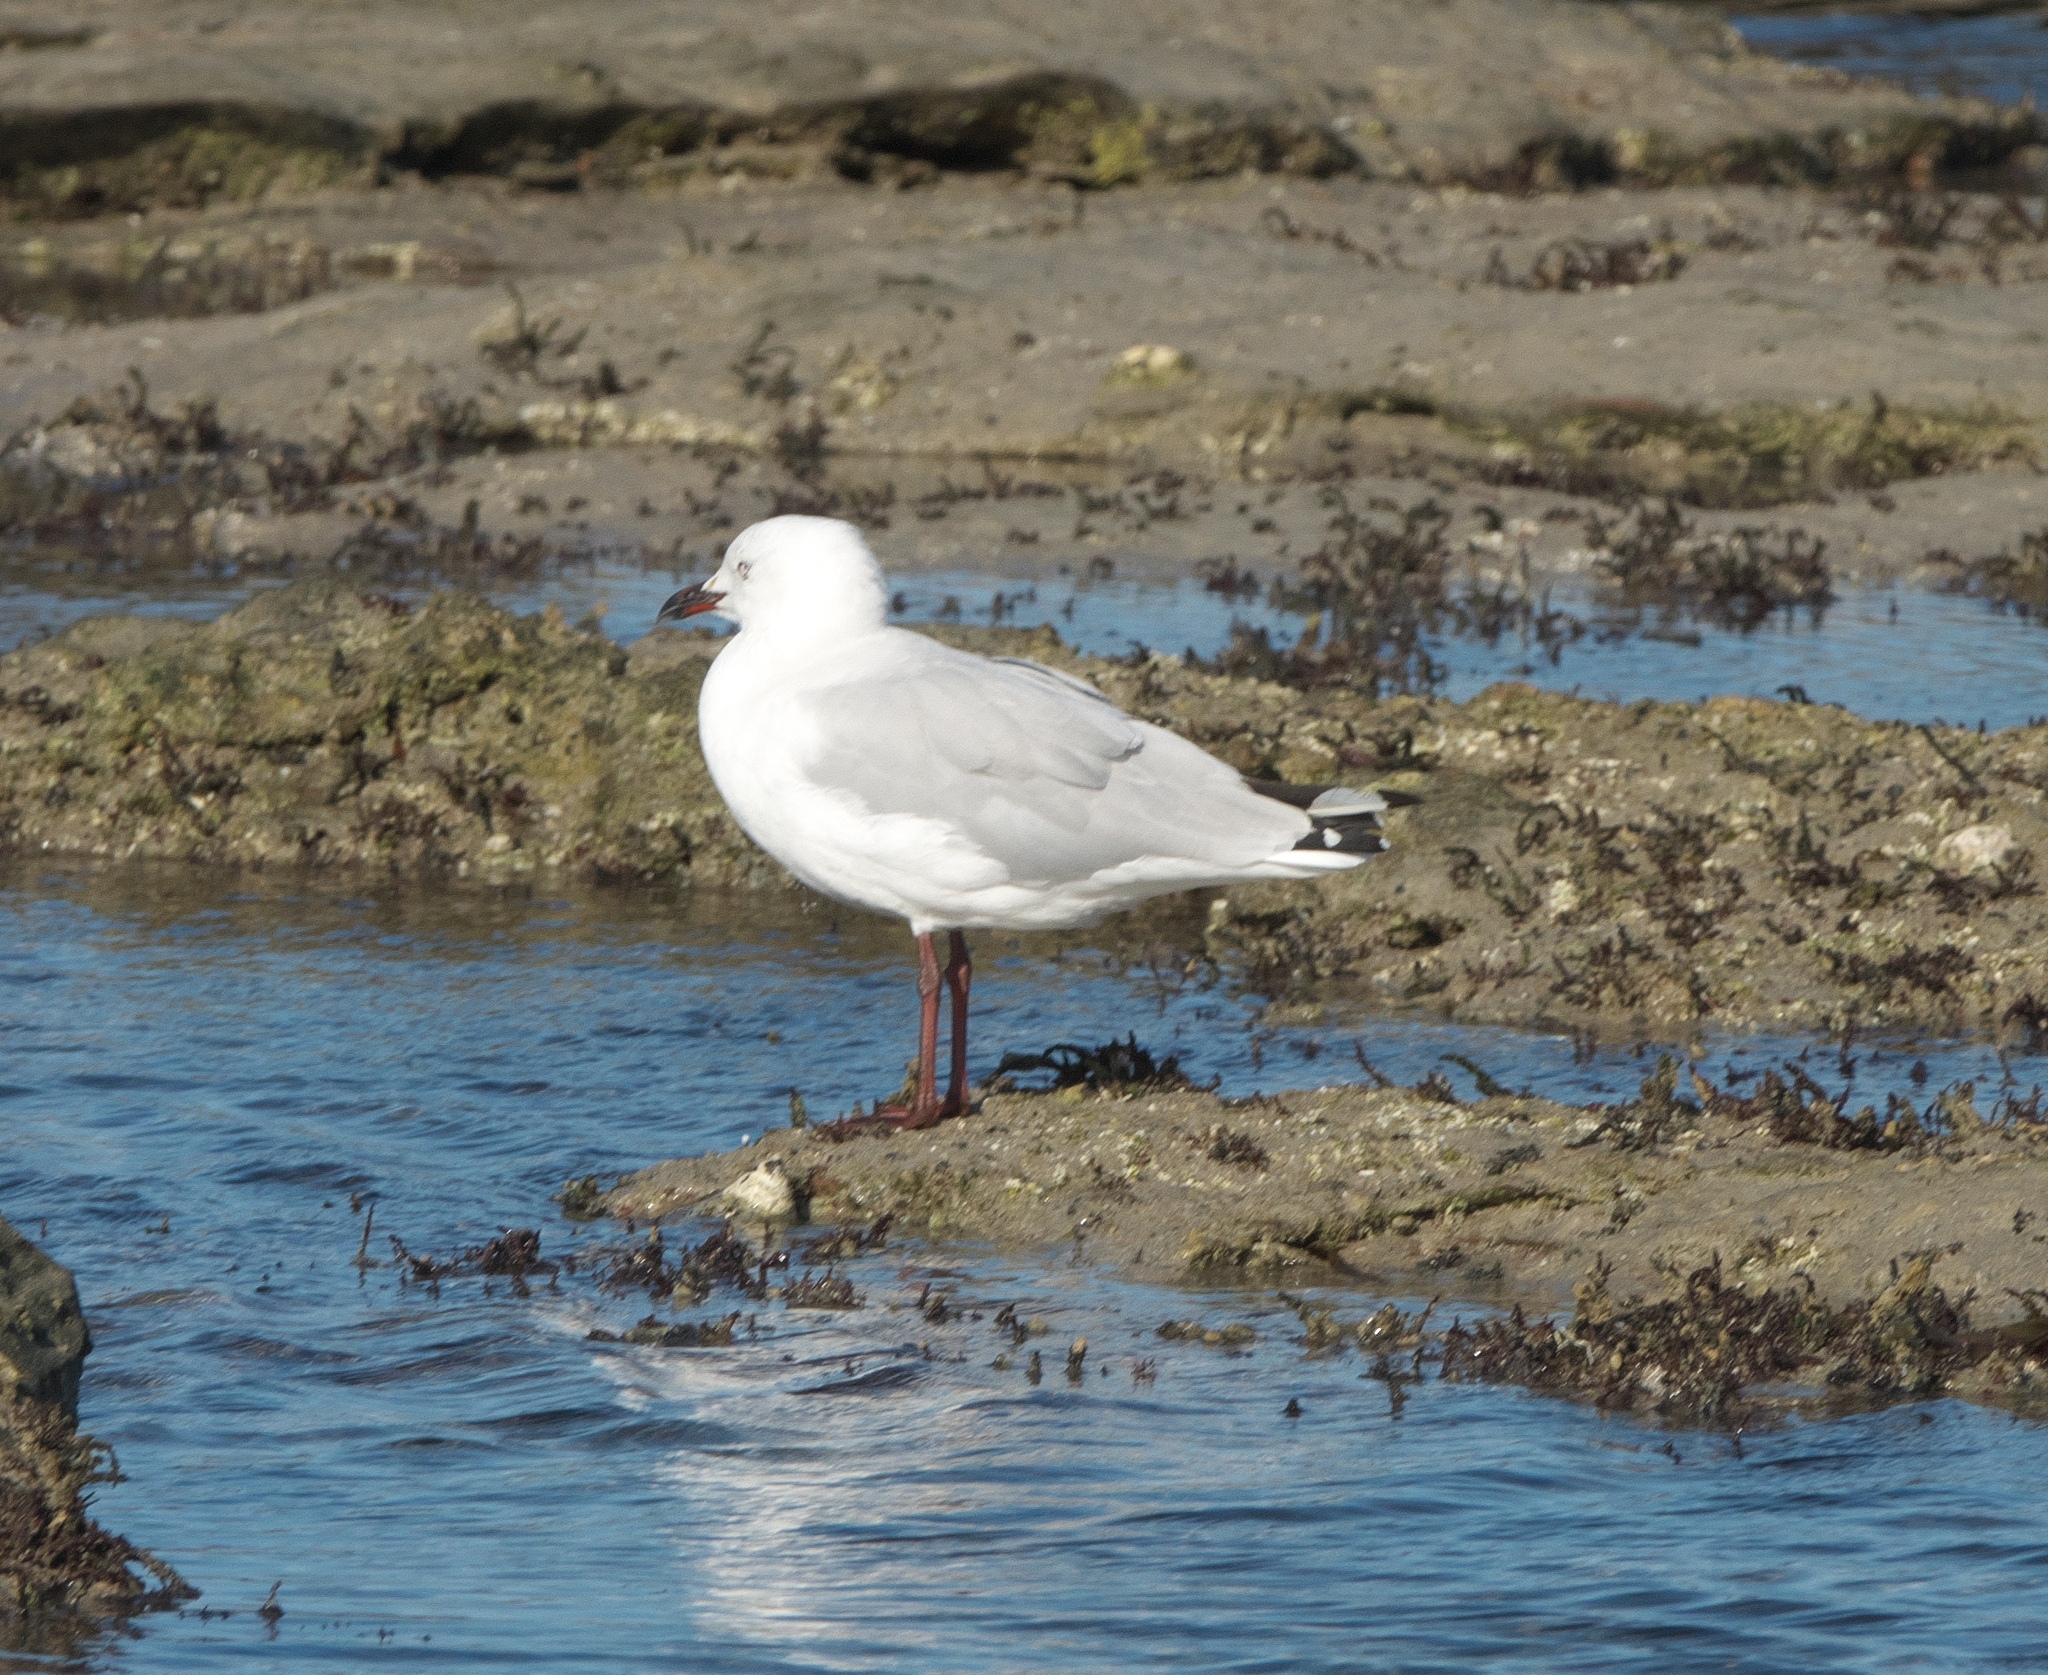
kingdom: Animalia
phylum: Chordata
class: Aves
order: Charadriiformes
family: Laridae
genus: Chroicocephalus
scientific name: Chroicocephalus novaehollandiae
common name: Silver gull
